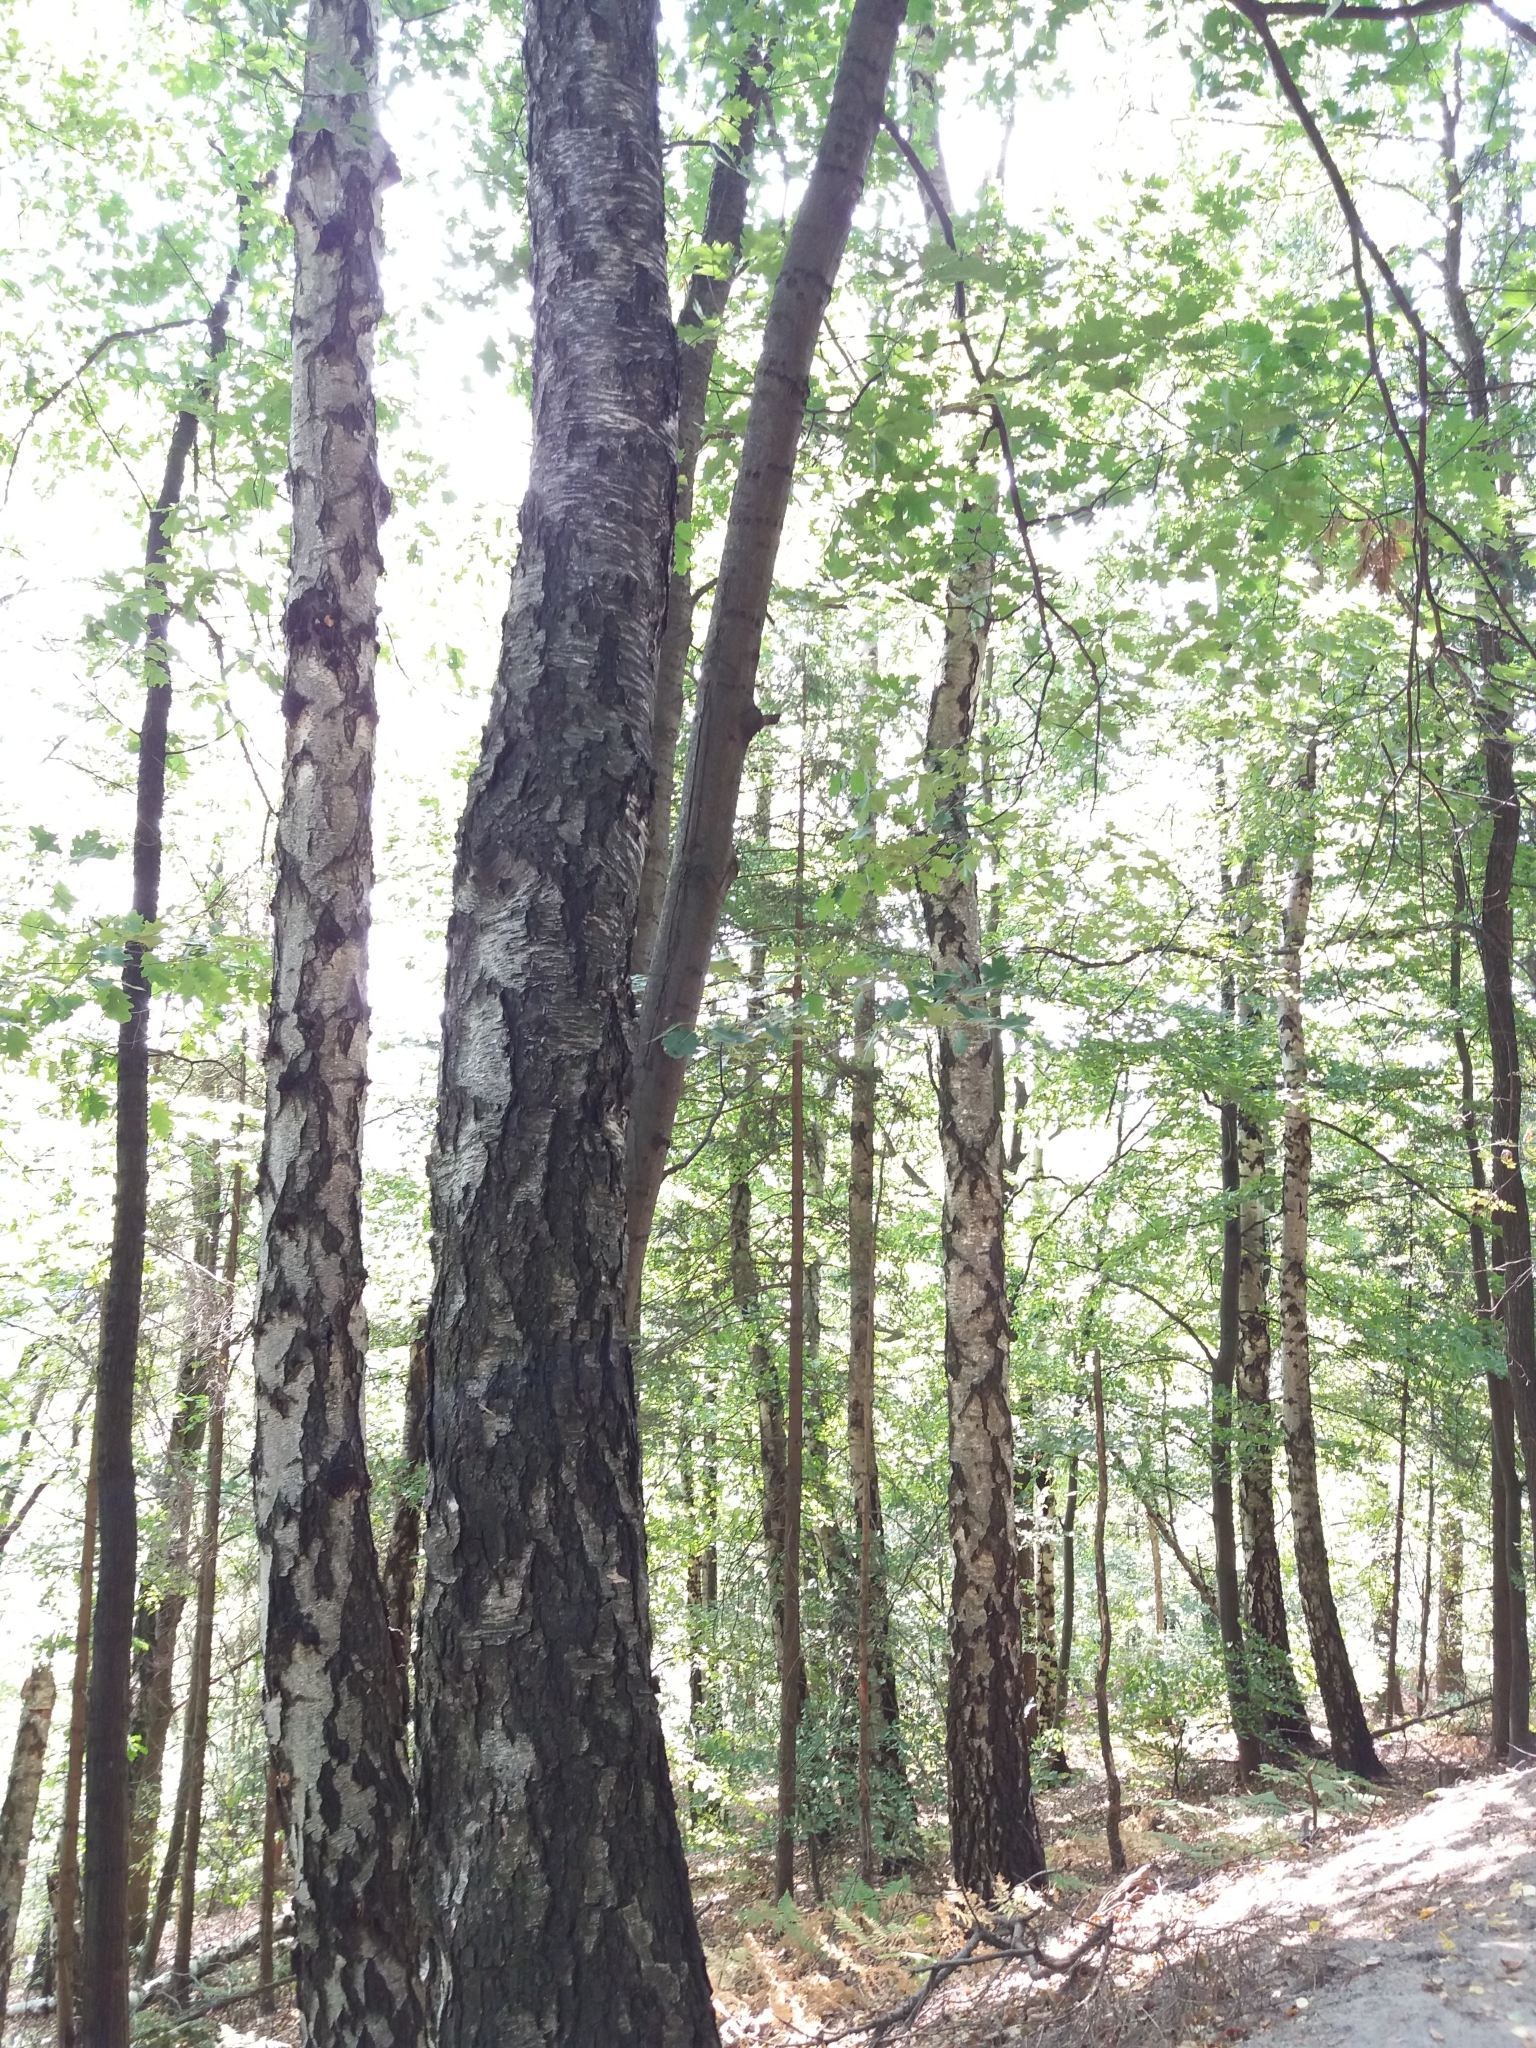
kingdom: Plantae
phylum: Tracheophyta
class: Magnoliopsida
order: Fagales
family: Betulaceae
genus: Betula
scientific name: Betula pendula
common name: Silver birch
